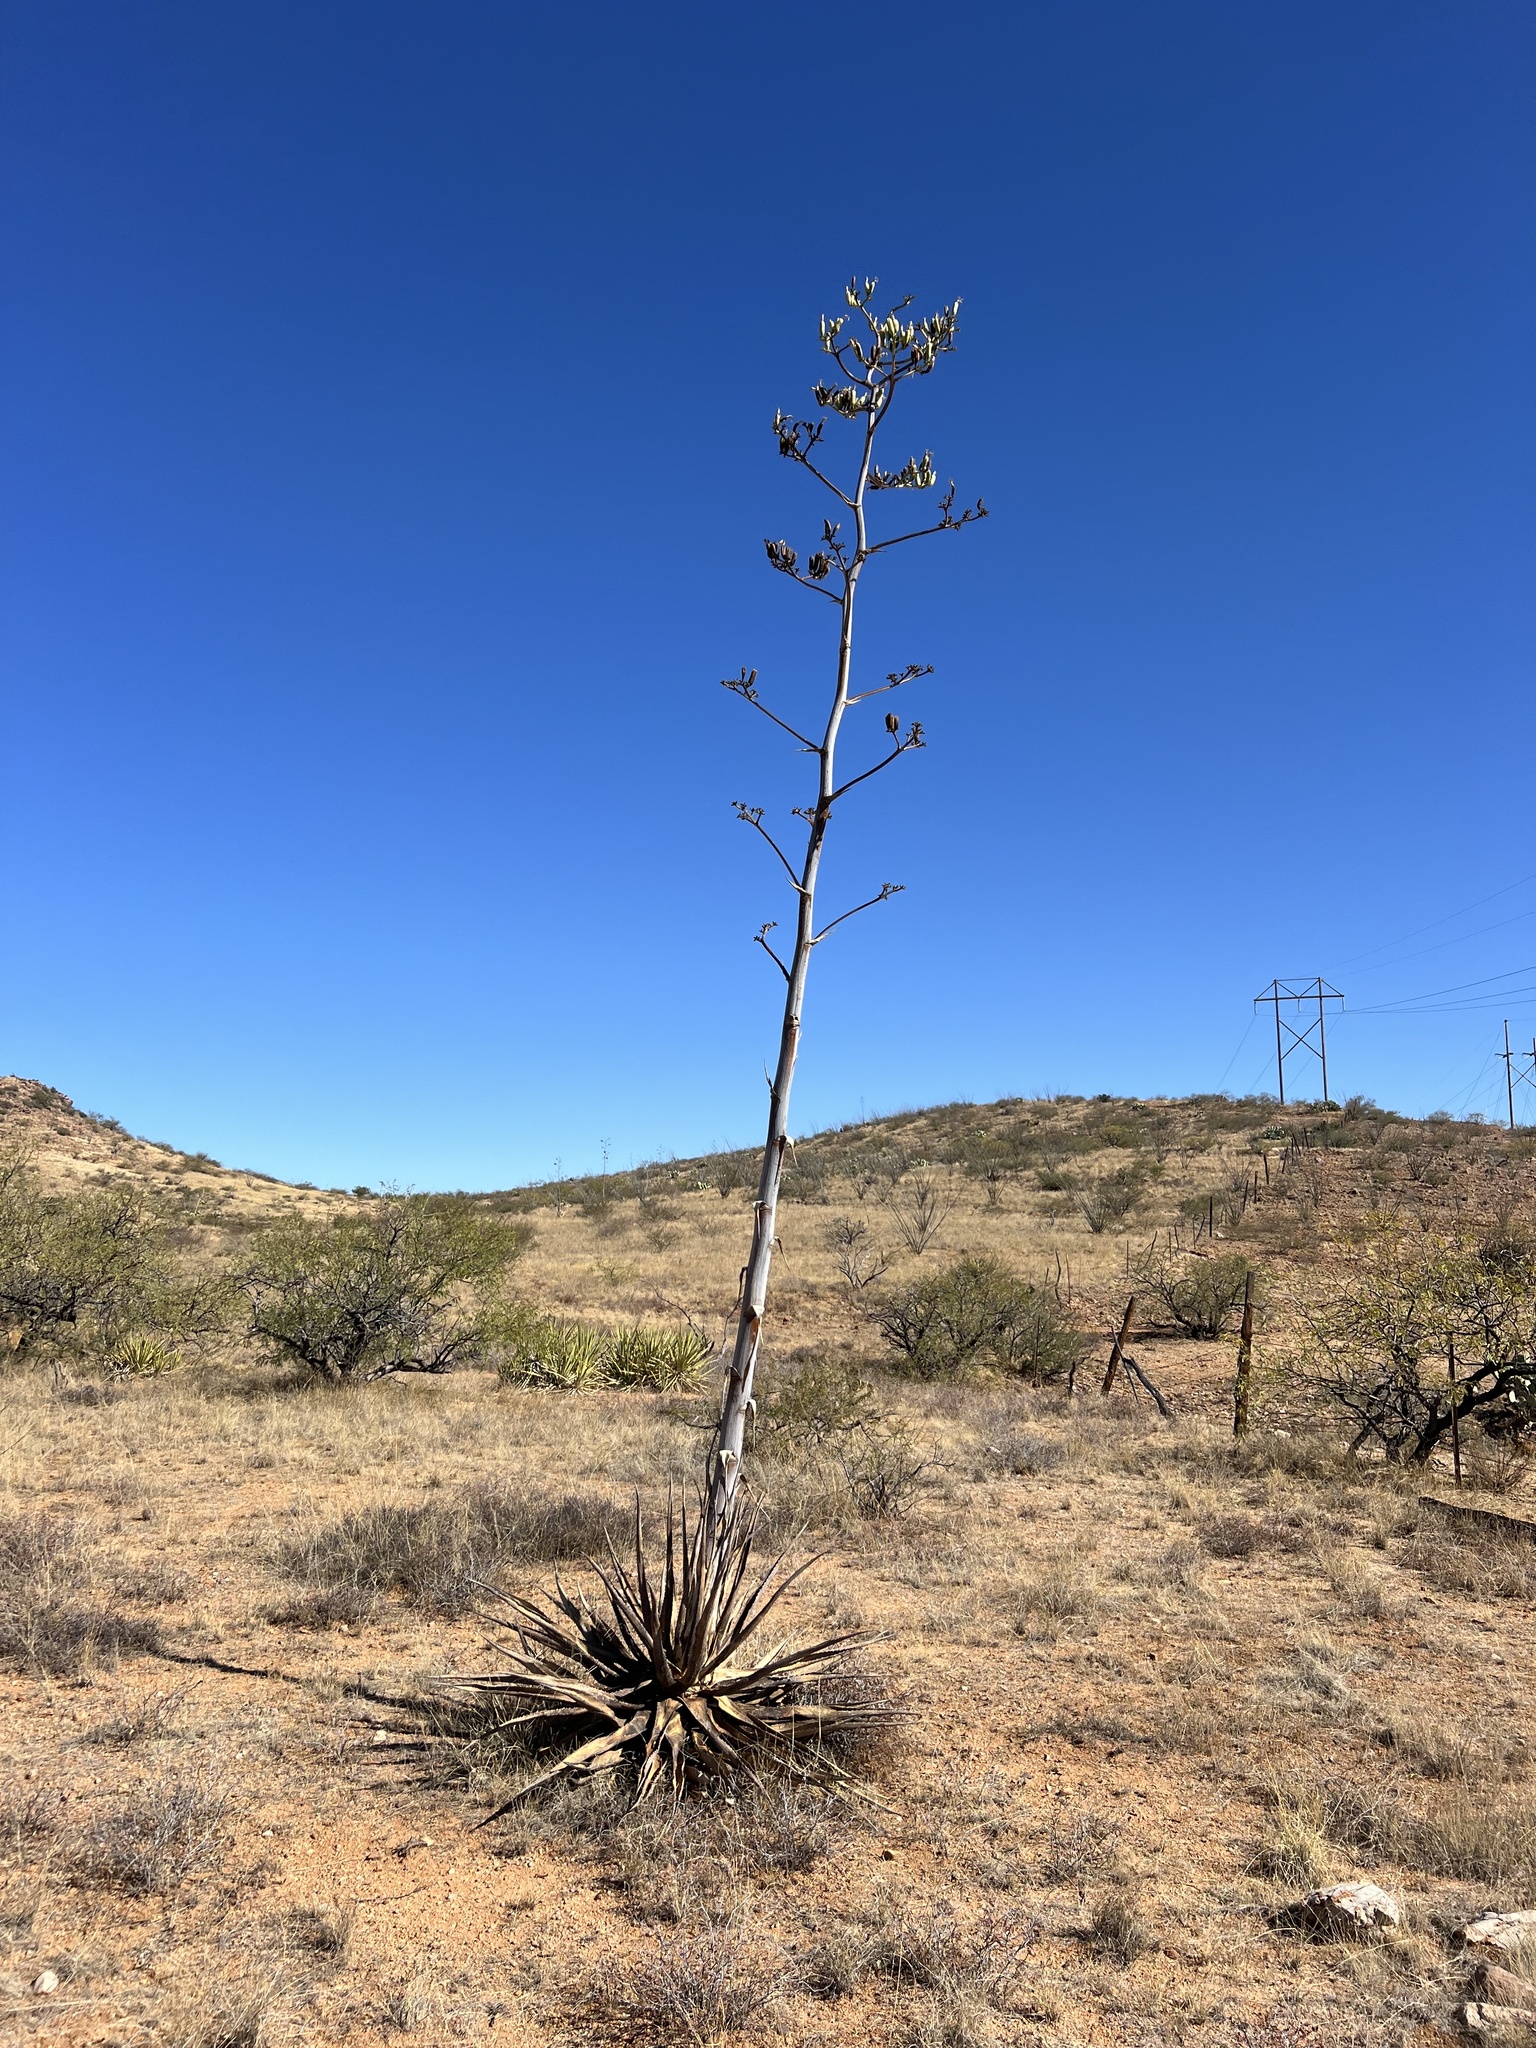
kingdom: Plantae
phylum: Tracheophyta
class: Liliopsida
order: Asparagales
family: Asparagaceae
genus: Agave
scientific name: Agave palmeri
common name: Palmer agave
